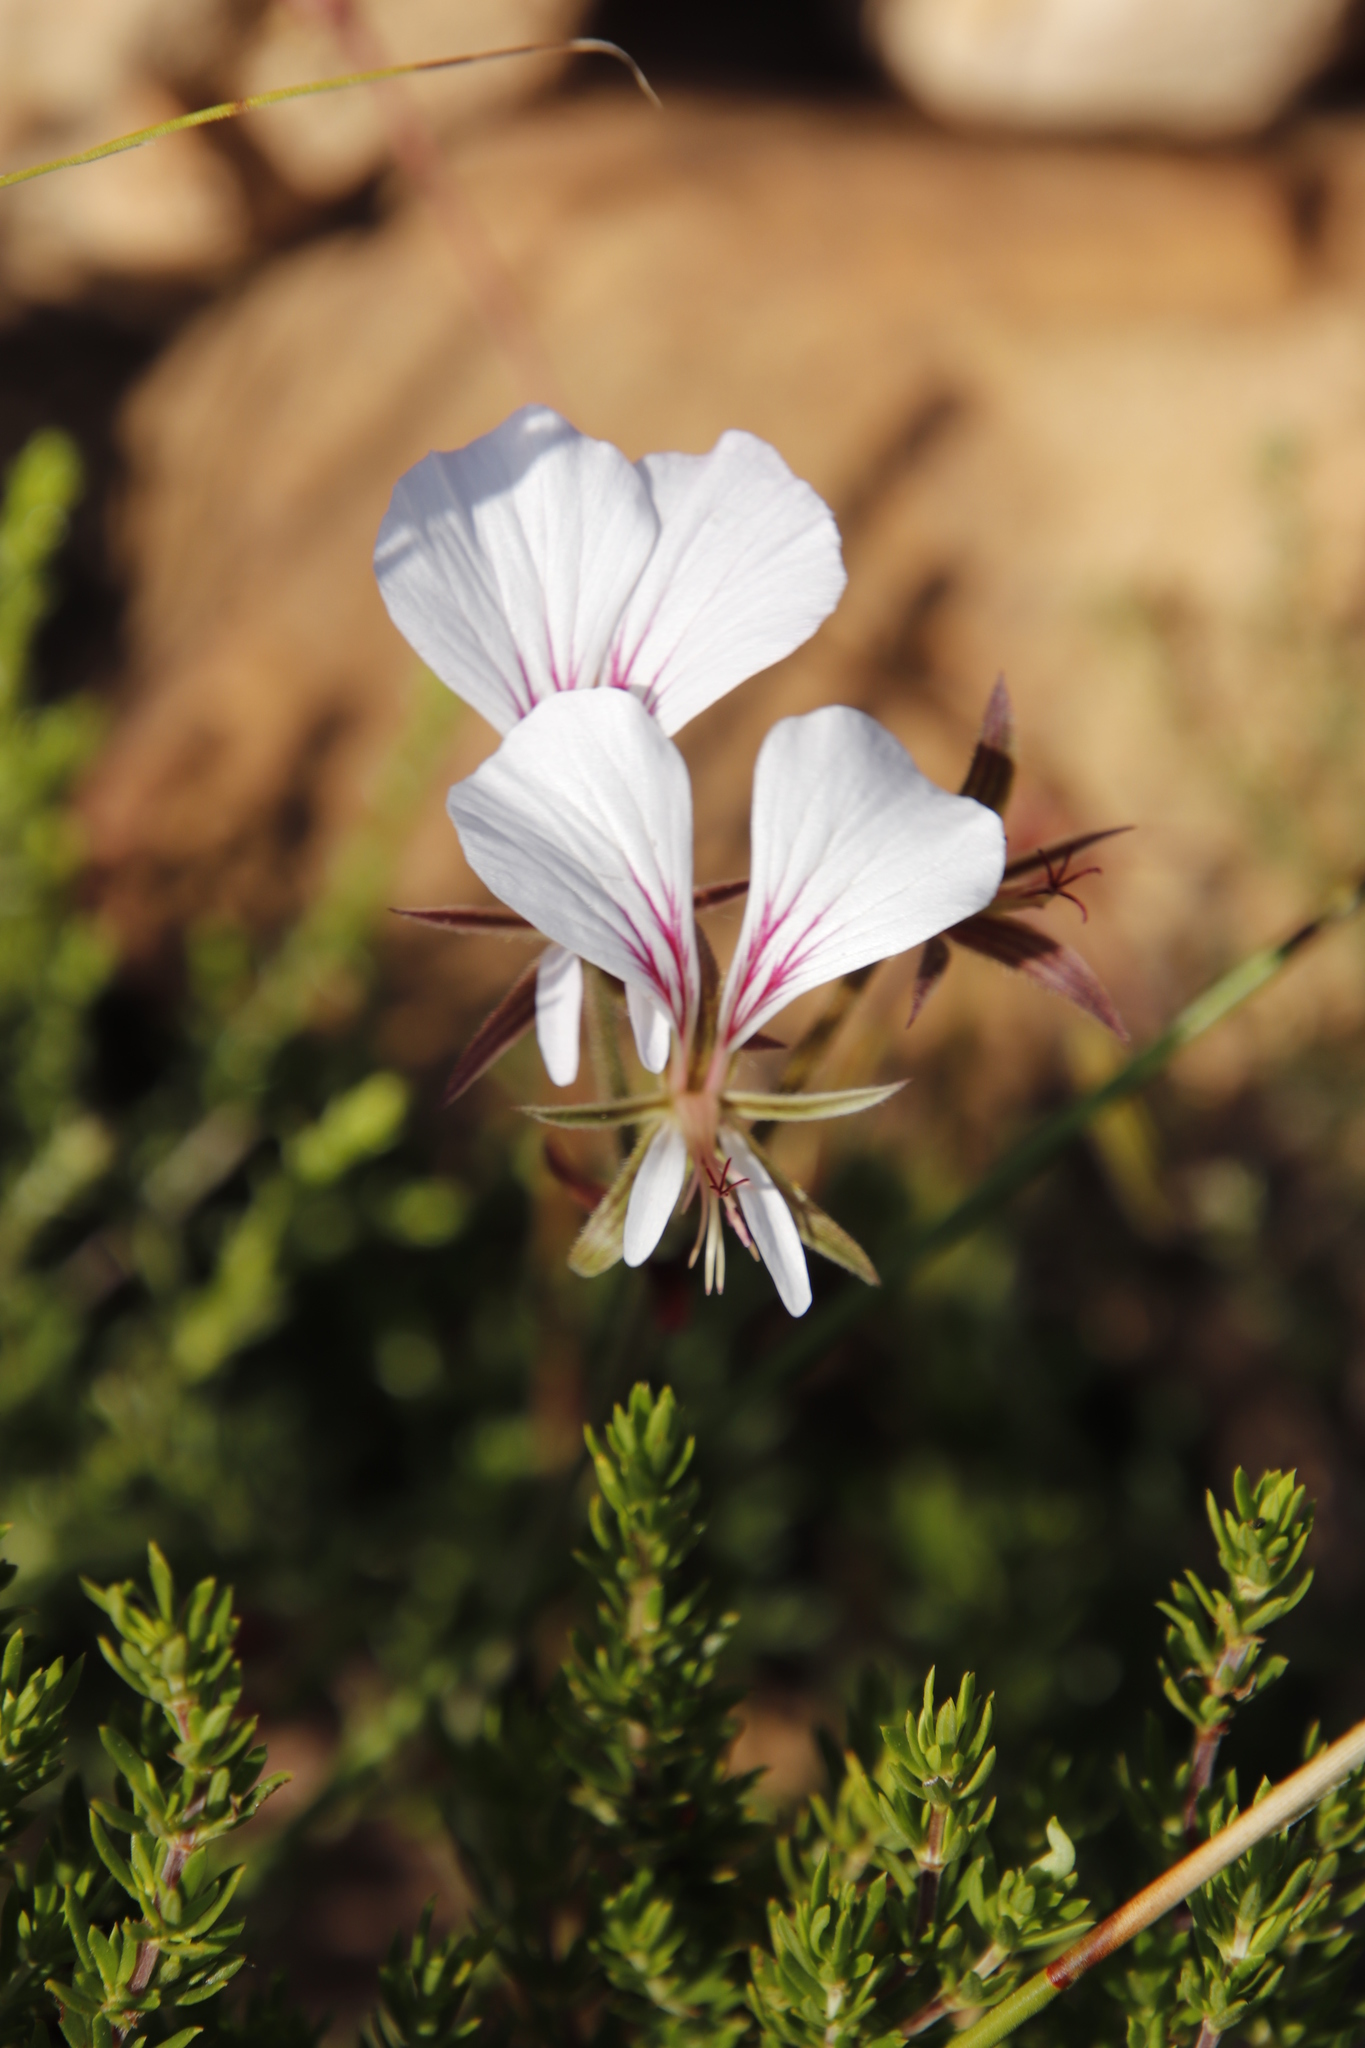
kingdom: Plantae
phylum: Tracheophyta
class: Magnoliopsida
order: Geraniales
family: Geraniaceae
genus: Pelargonium
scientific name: Pelargonium longicaule
